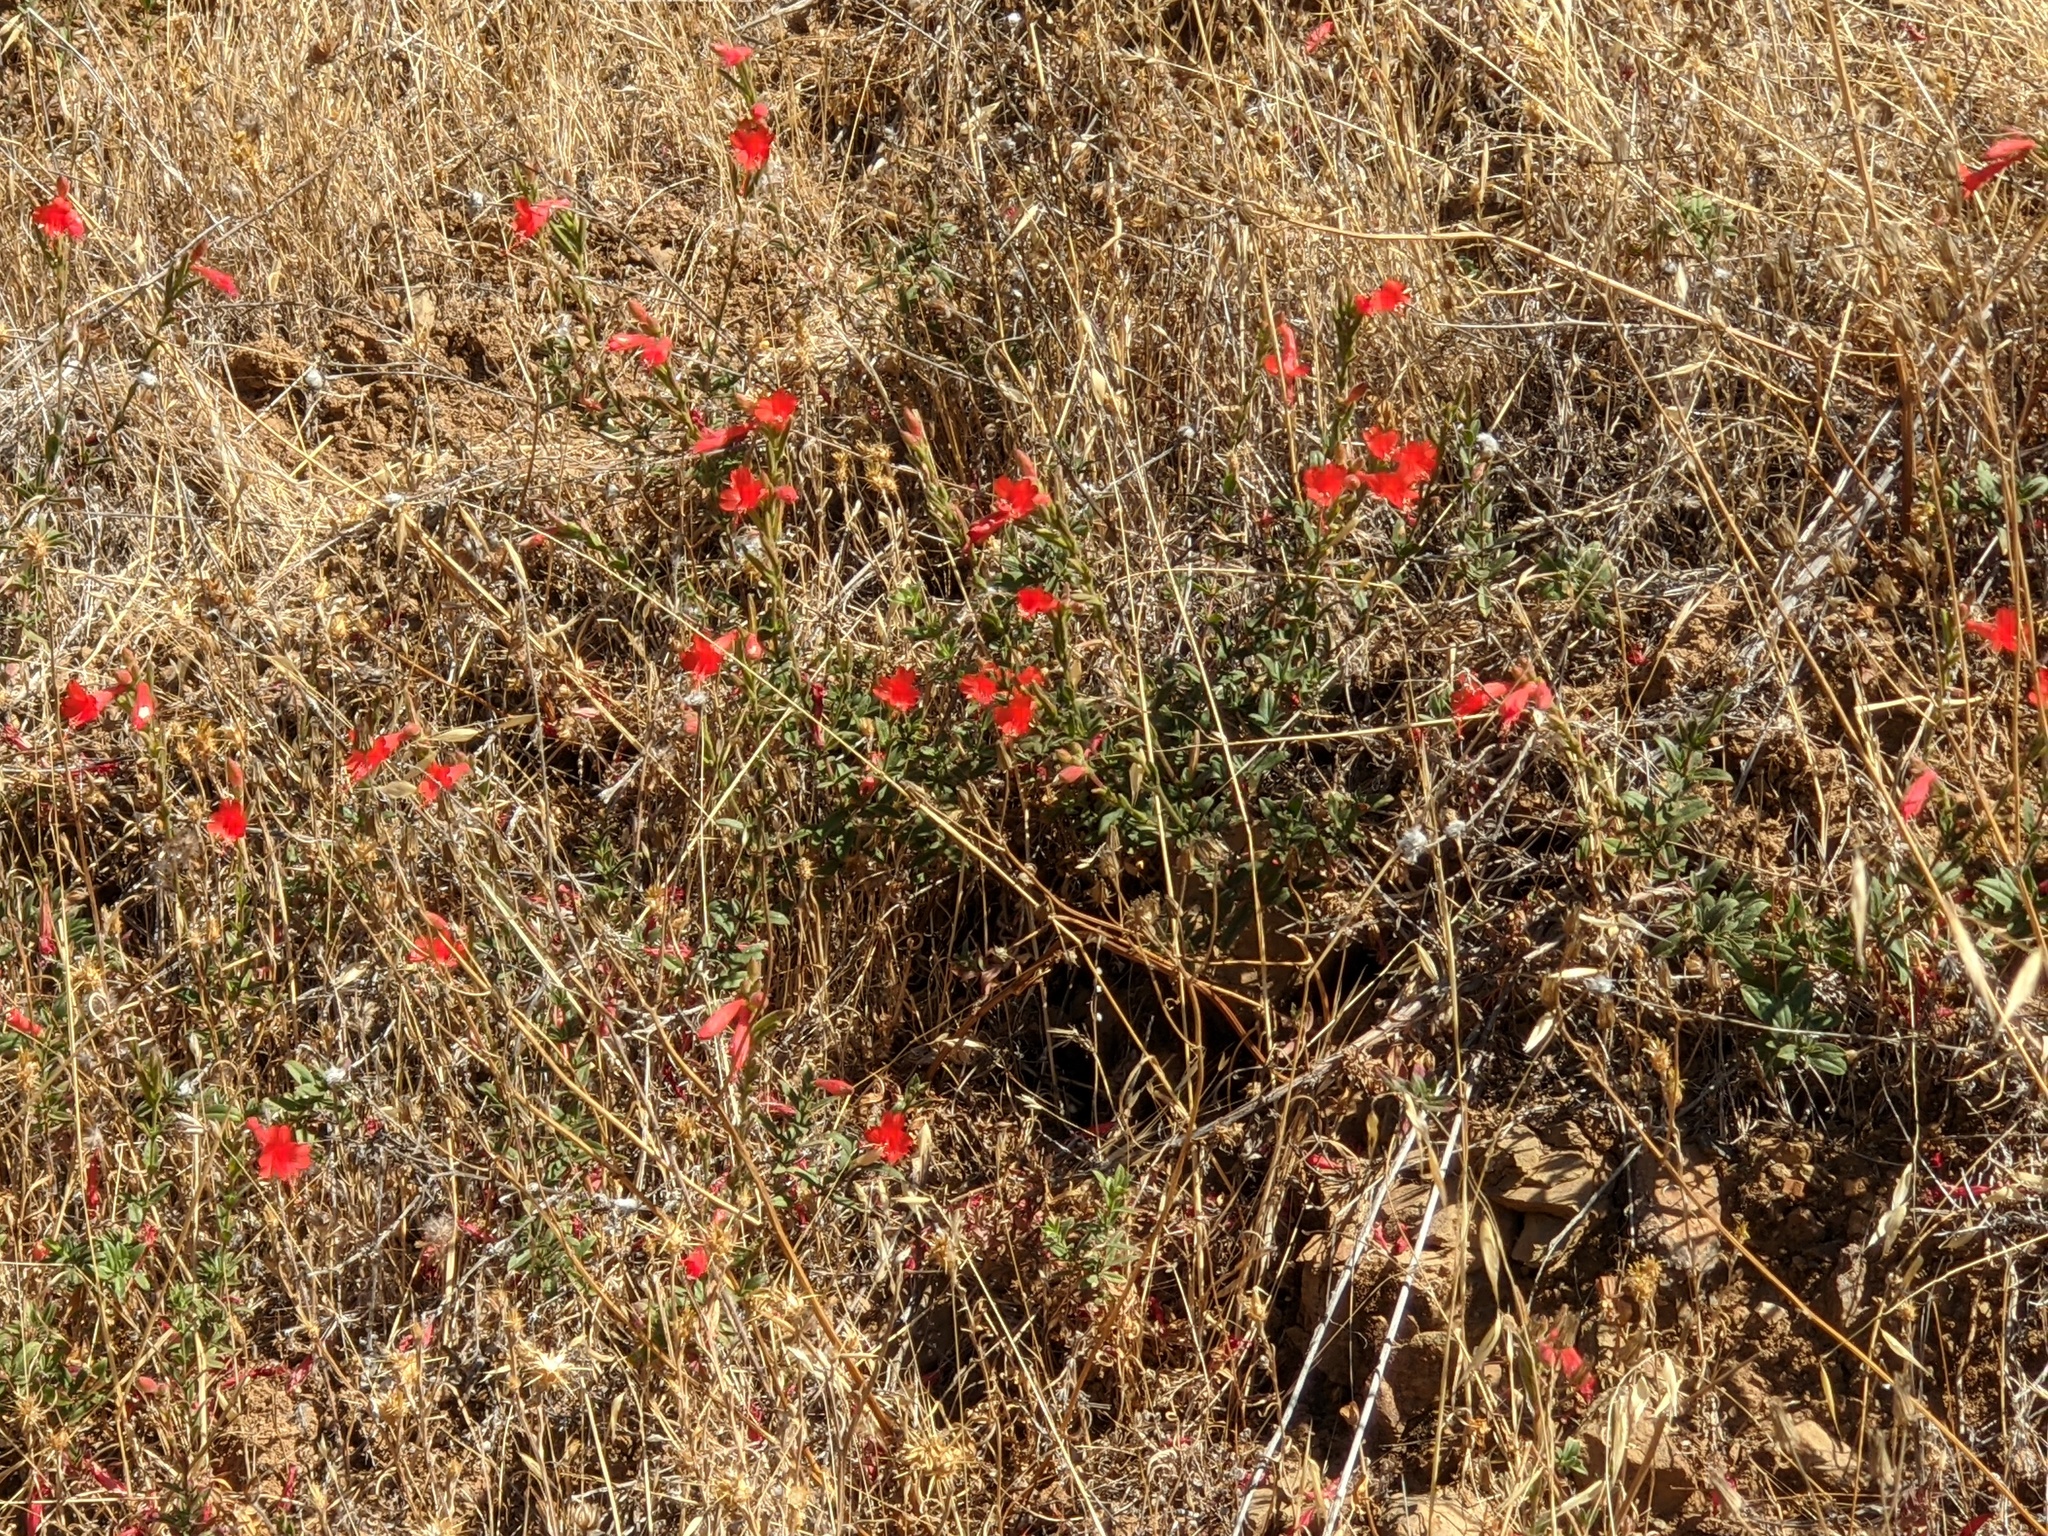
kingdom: Plantae
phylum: Tracheophyta
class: Magnoliopsida
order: Myrtales
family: Onagraceae
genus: Epilobium
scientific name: Epilobium canum
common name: California-fuchsia
